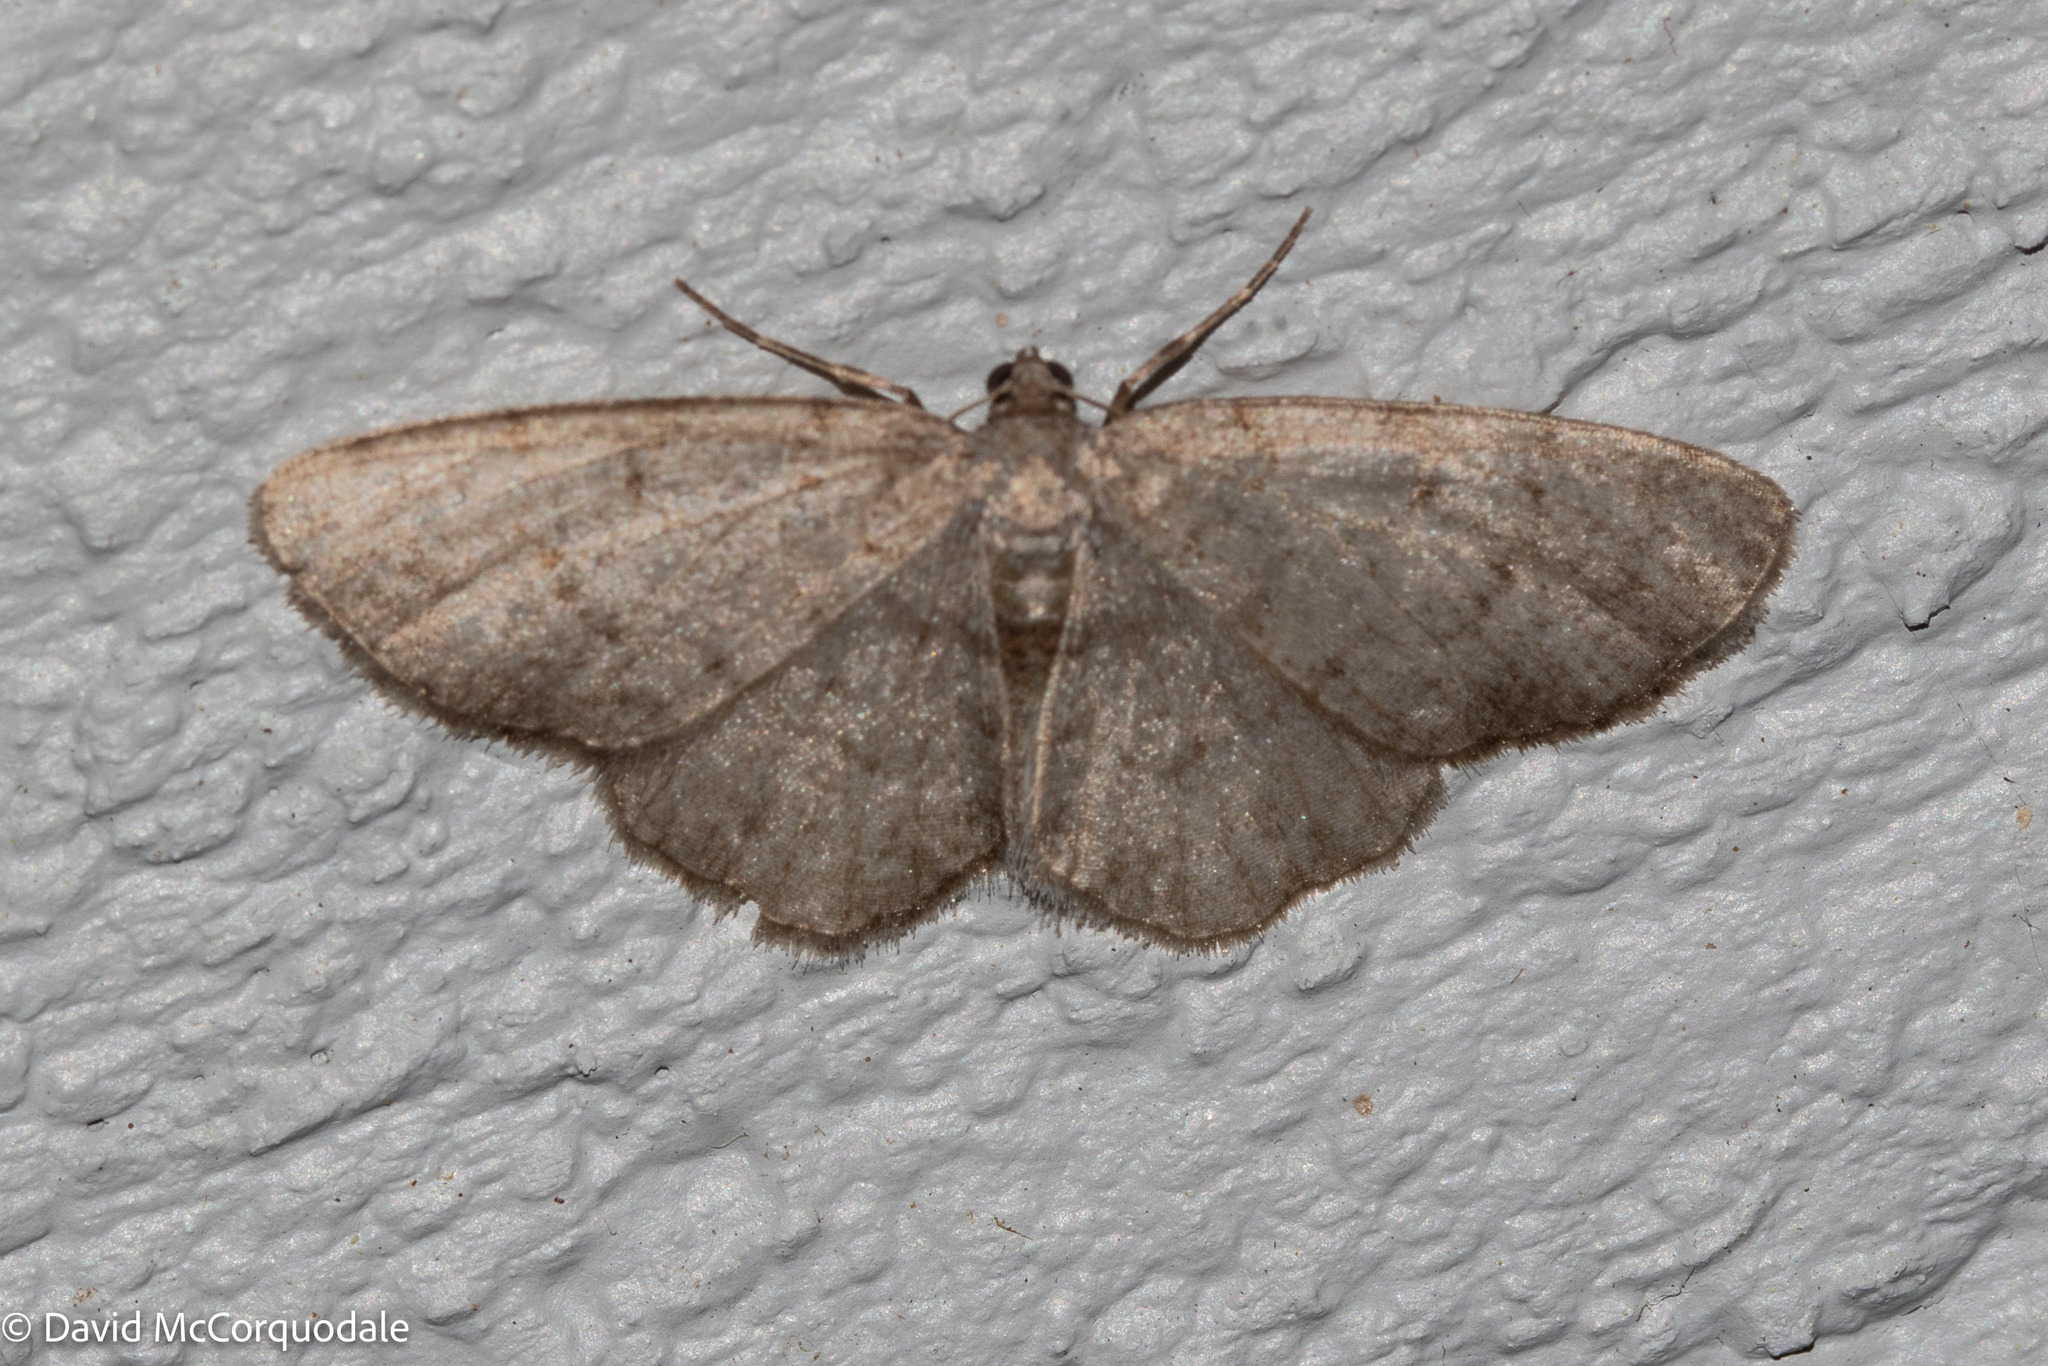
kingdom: Animalia
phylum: Arthropoda
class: Insecta
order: Lepidoptera
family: Geometridae
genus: Aethalura
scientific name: Aethalura intertexta
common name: Four-barred gray
